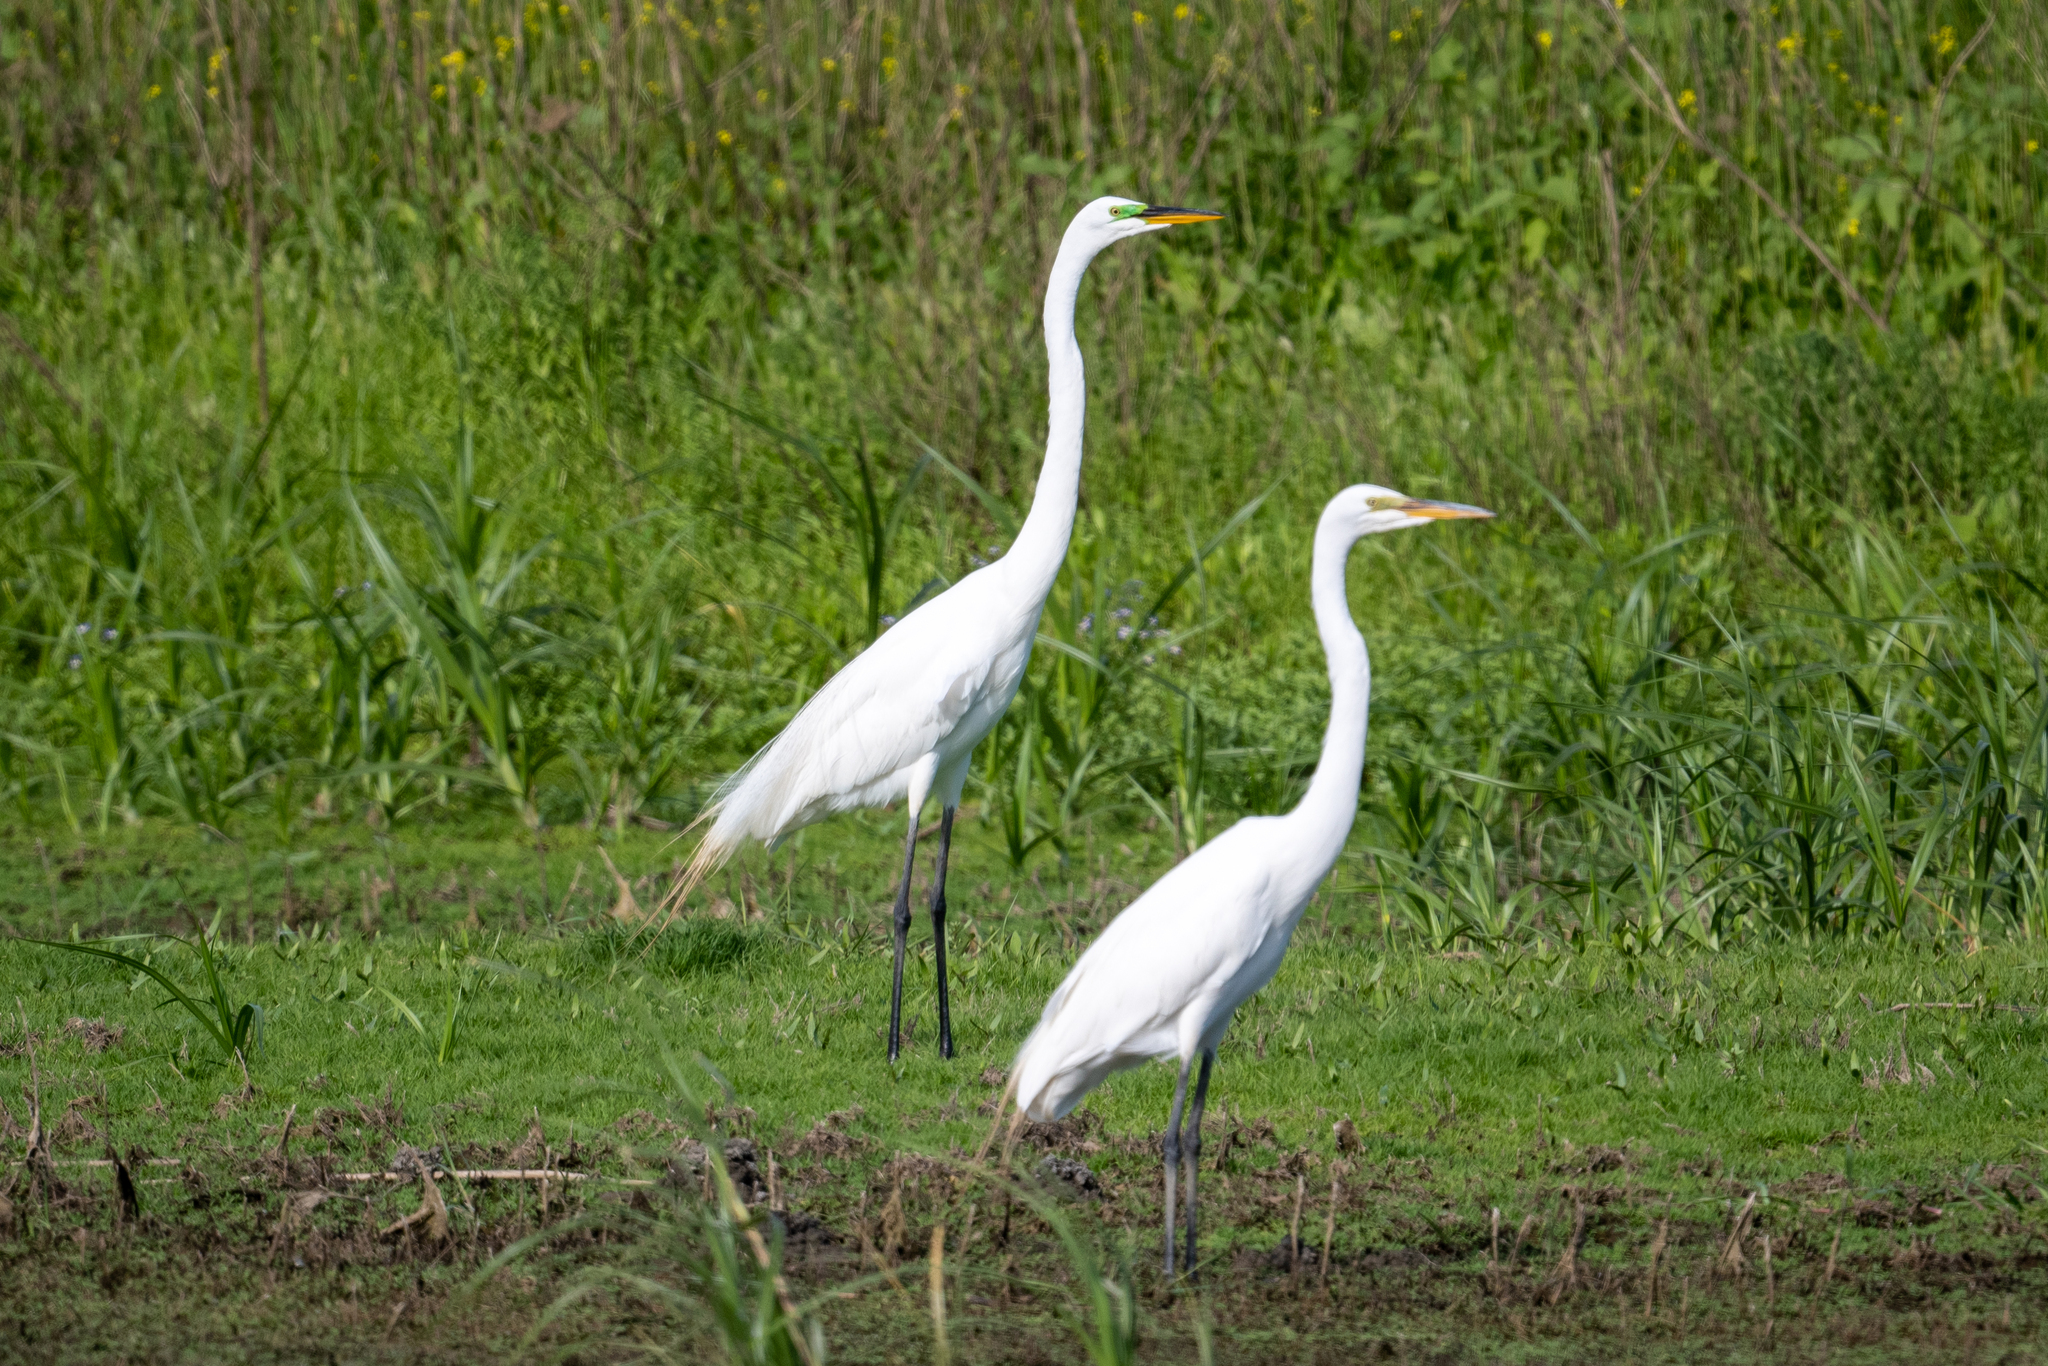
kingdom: Animalia
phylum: Chordata
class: Aves
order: Pelecaniformes
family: Ardeidae
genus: Ardea
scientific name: Ardea alba
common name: Great egret
